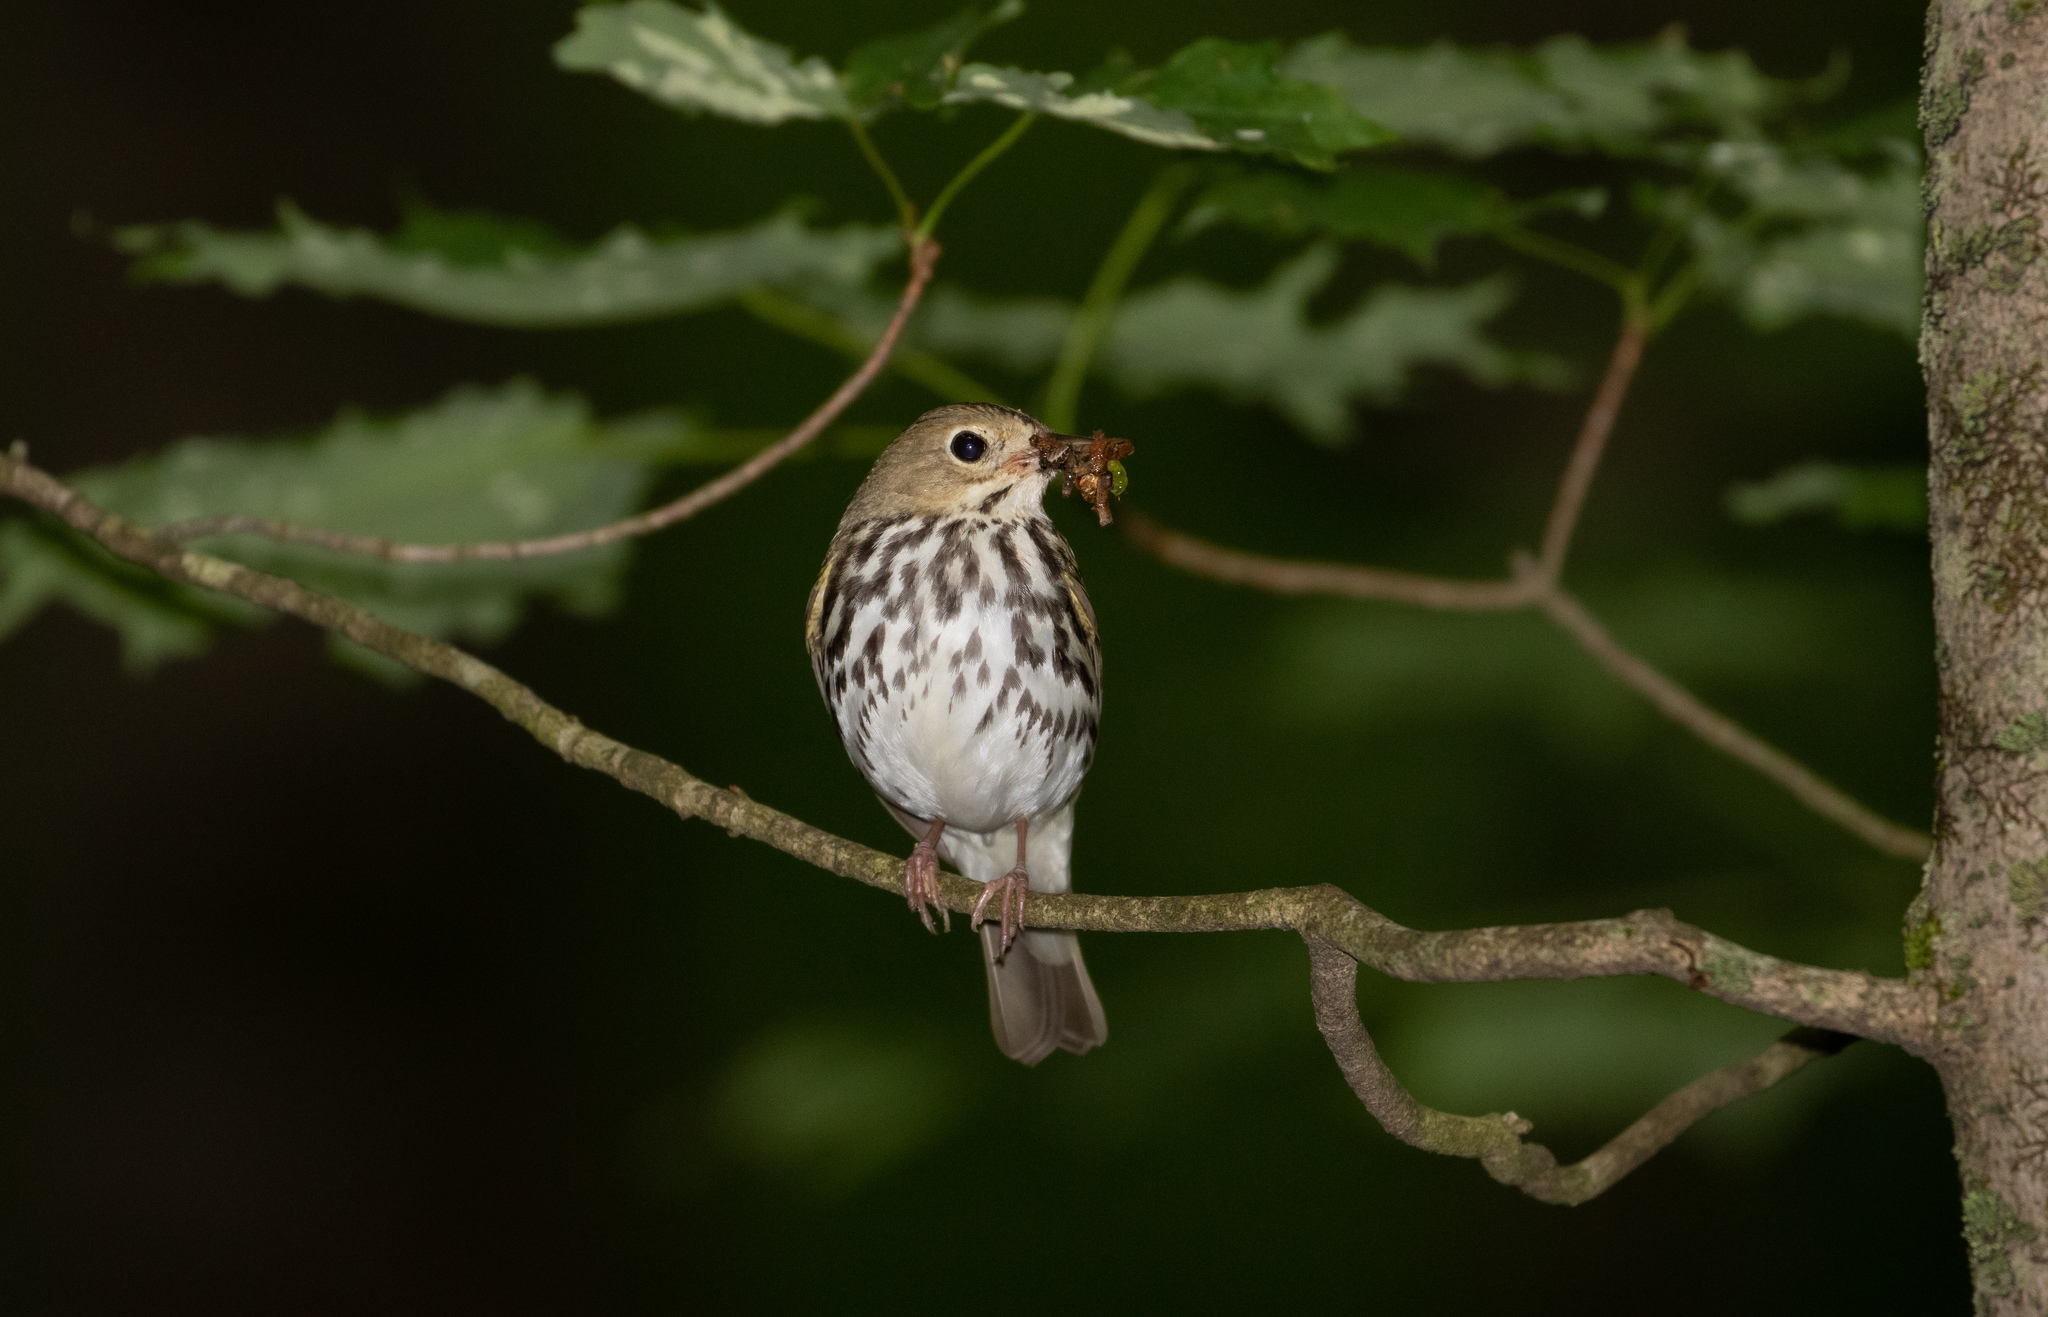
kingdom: Animalia
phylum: Chordata
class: Aves
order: Passeriformes
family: Parulidae
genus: Seiurus
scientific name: Seiurus aurocapilla
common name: Ovenbird
